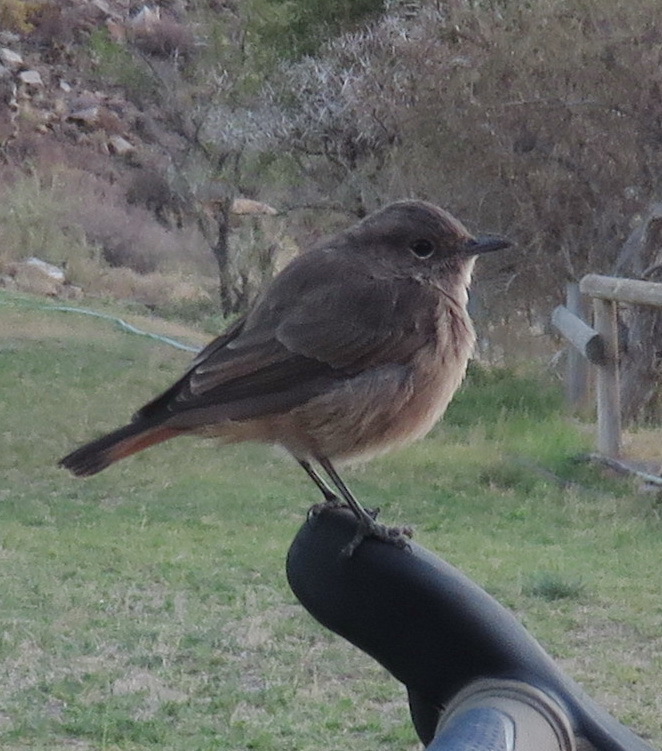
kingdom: Animalia
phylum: Chordata
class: Aves
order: Passeriformes
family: Muscicapidae
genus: Oenanthe
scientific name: Oenanthe familiaris
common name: Familiar chat
